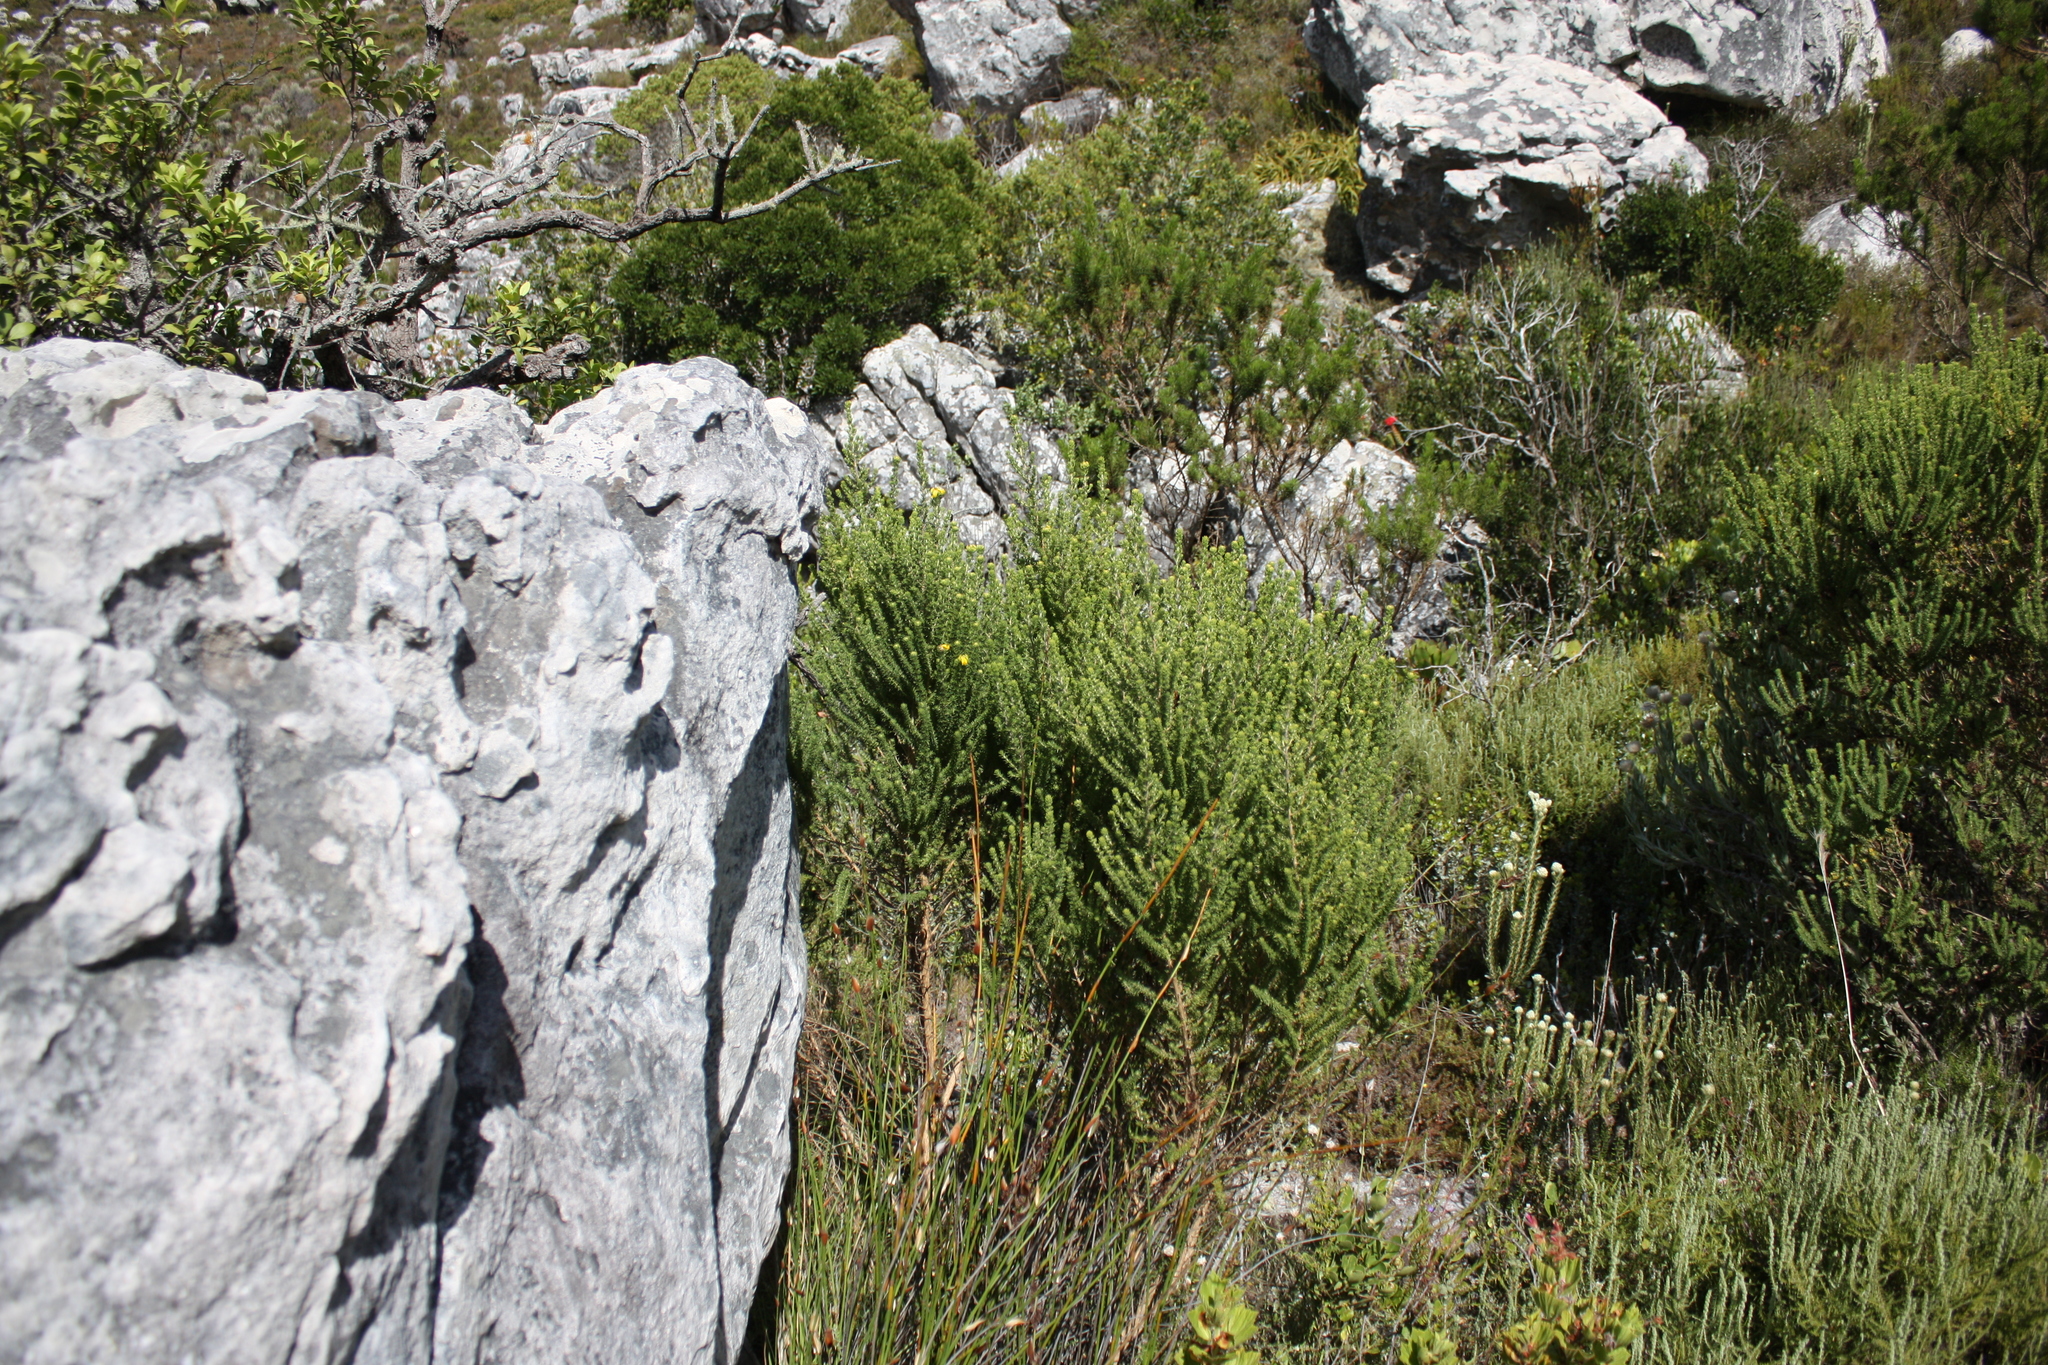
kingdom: Plantae
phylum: Tracheophyta
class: Magnoliopsida
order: Fabales
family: Fabaceae
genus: Aspalathus
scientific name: Aspalathus capitata
